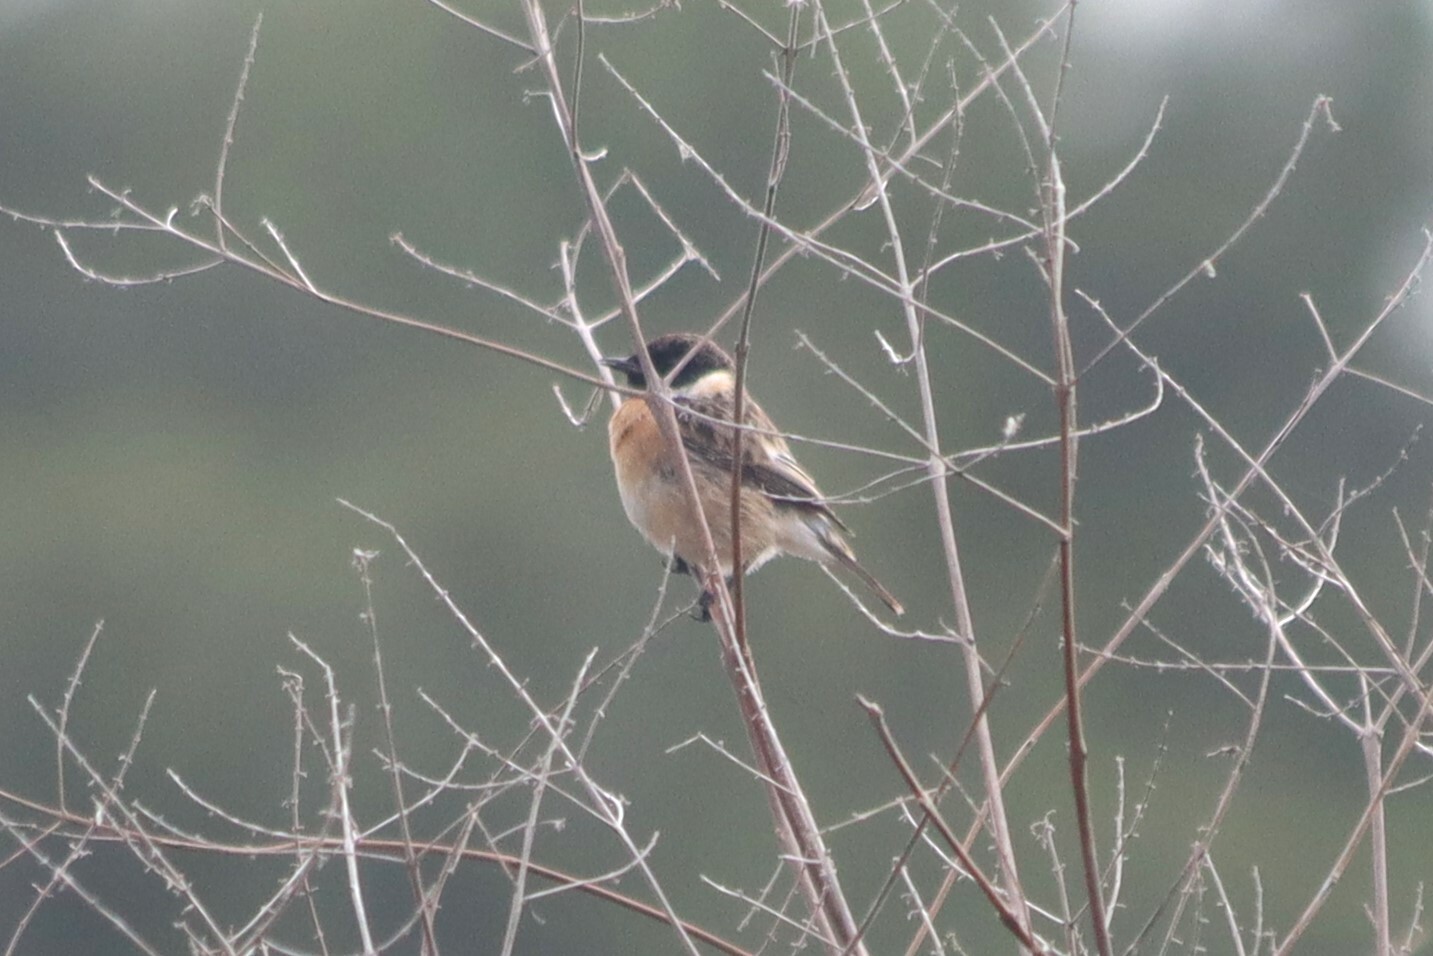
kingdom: Animalia
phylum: Chordata
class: Aves
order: Passeriformes
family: Muscicapidae
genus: Saxicola
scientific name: Saxicola rubicola
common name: European stonechat
